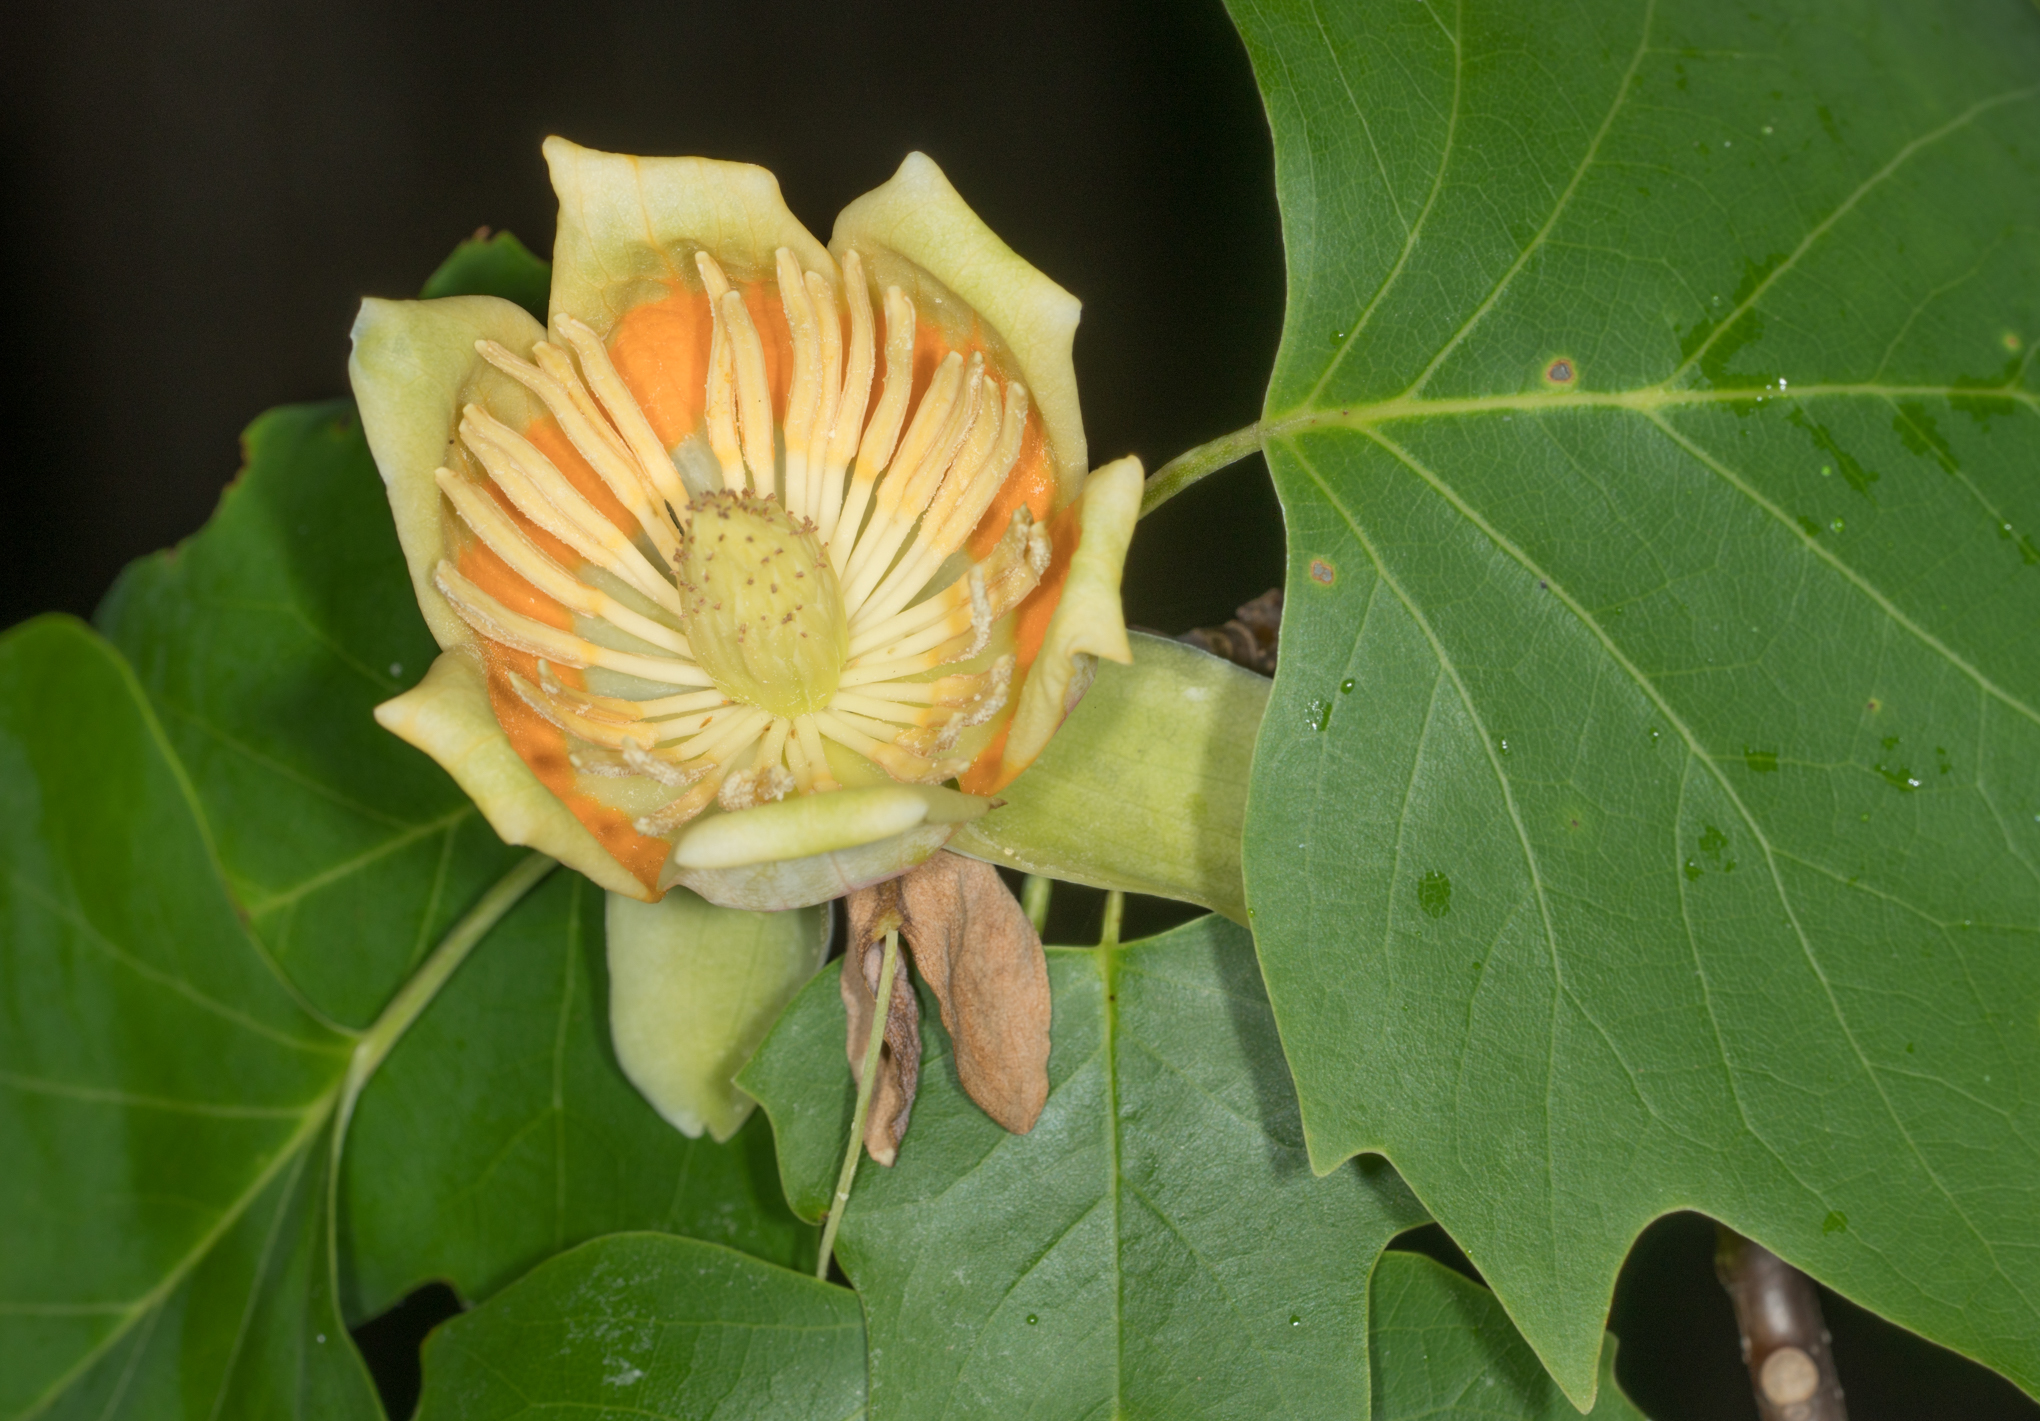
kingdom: Plantae
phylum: Tracheophyta
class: Magnoliopsida
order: Magnoliales
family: Magnoliaceae
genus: Liriodendron
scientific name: Liriodendron tulipifera
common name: Tulip tree
